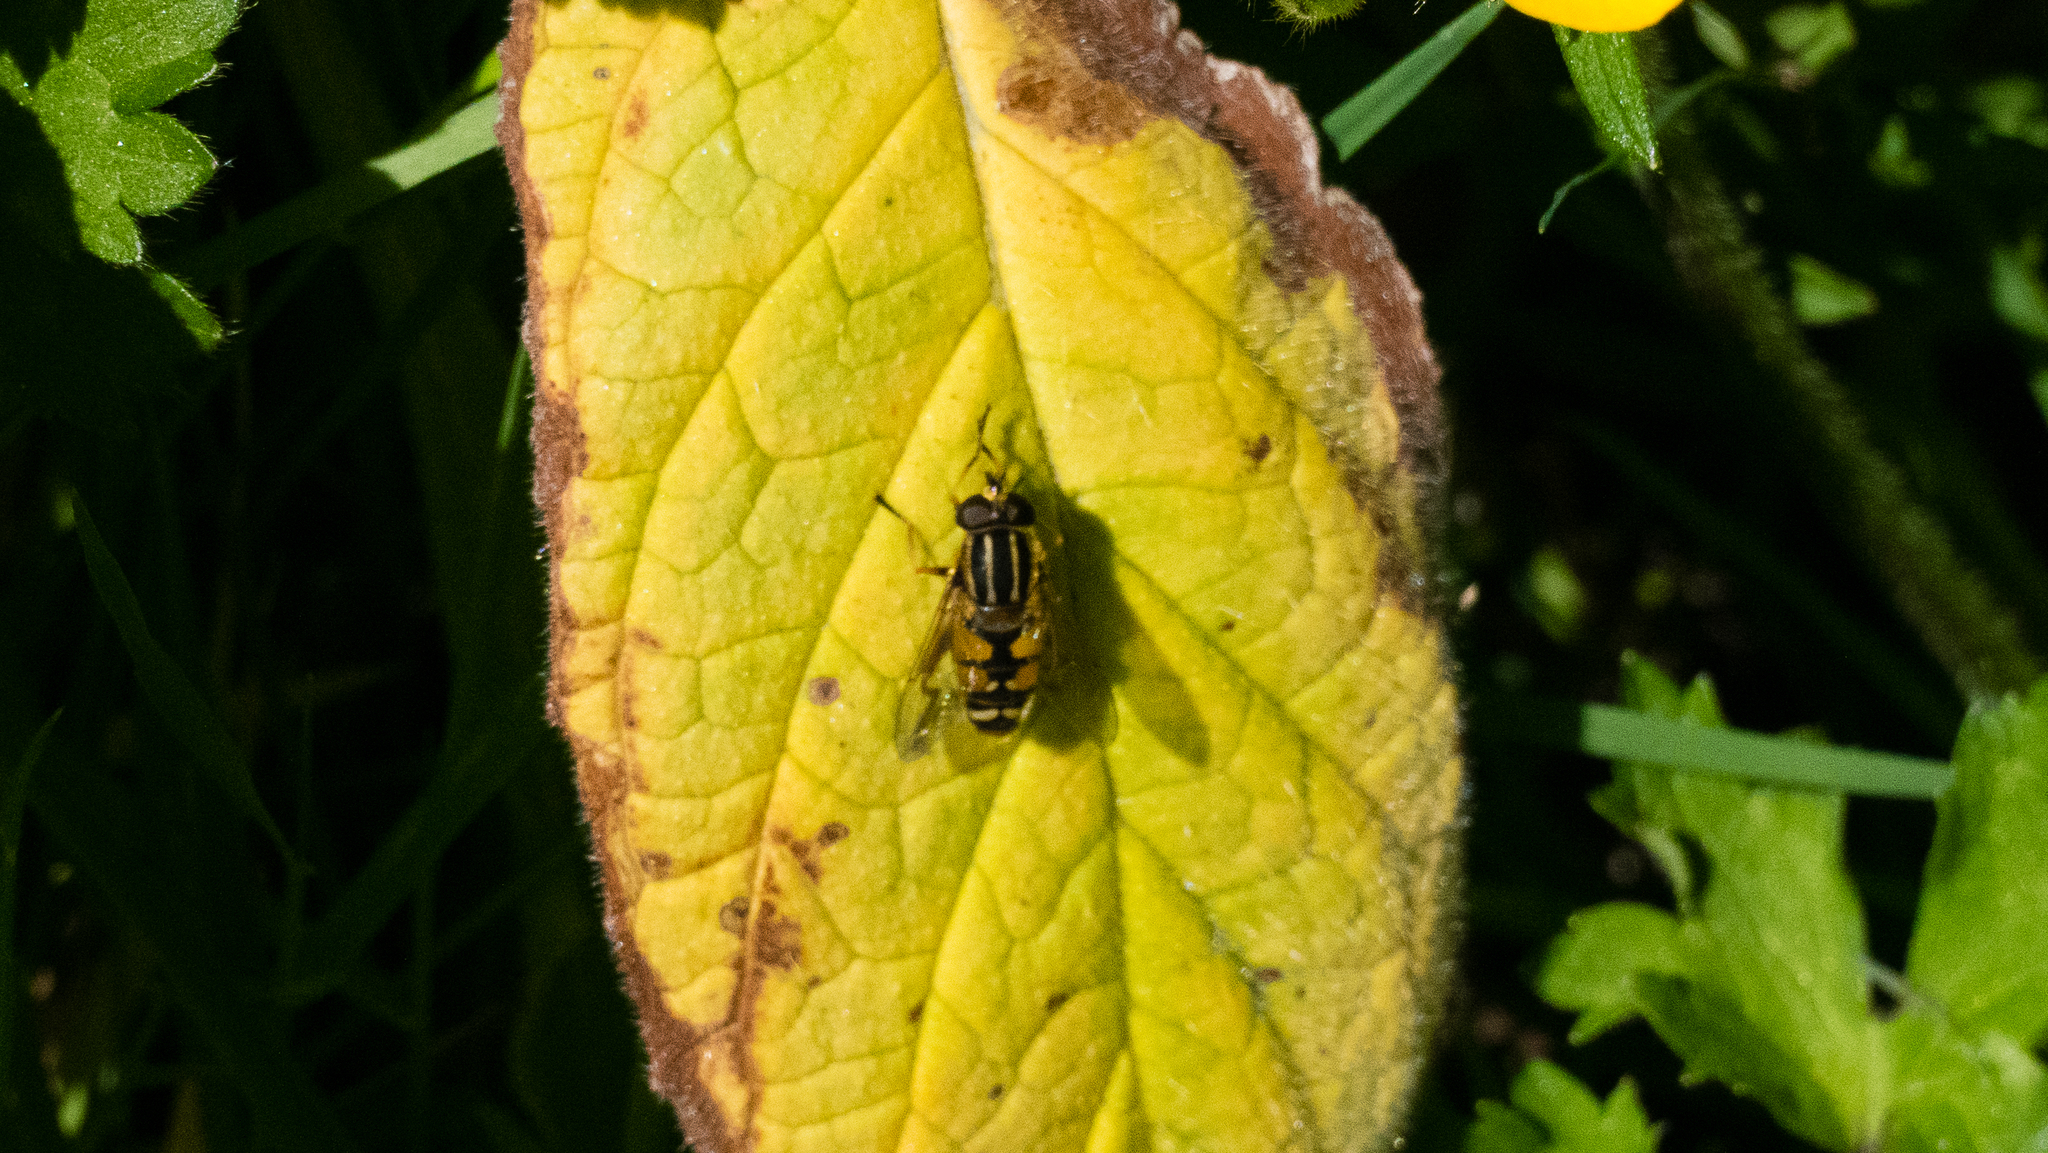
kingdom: Animalia
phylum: Arthropoda
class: Insecta
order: Diptera
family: Syrphidae
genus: Helophilus
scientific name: Helophilus pendulus
